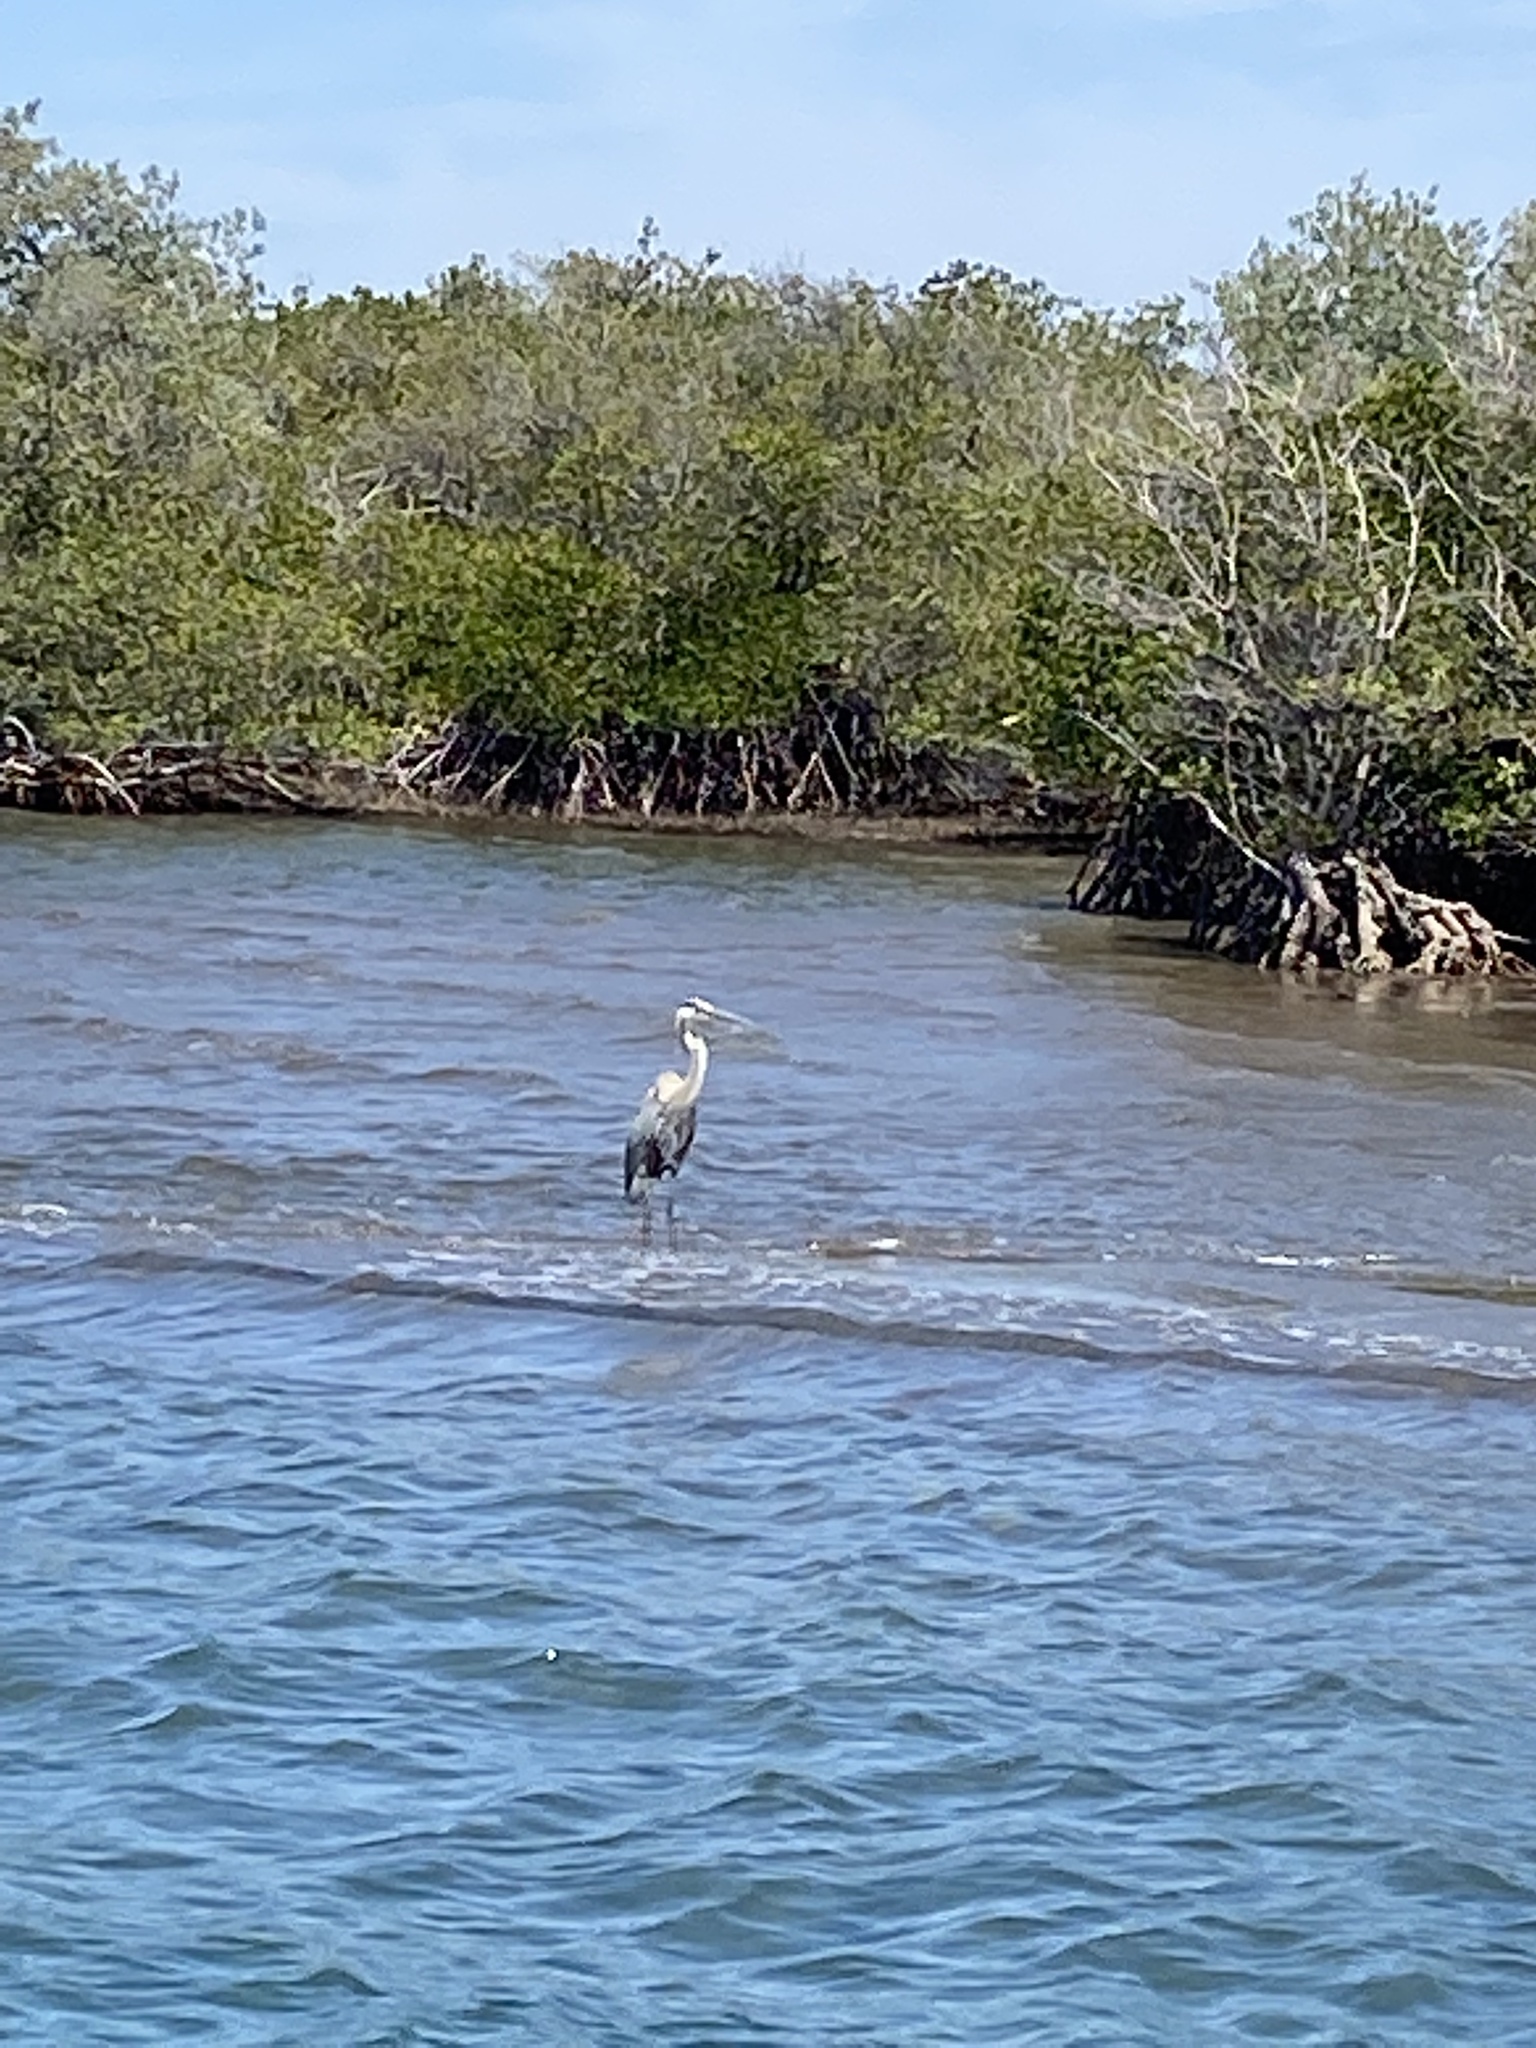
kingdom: Animalia
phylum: Chordata
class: Aves
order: Pelecaniformes
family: Ardeidae
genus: Ardea
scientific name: Ardea herodias
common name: Great blue heron
